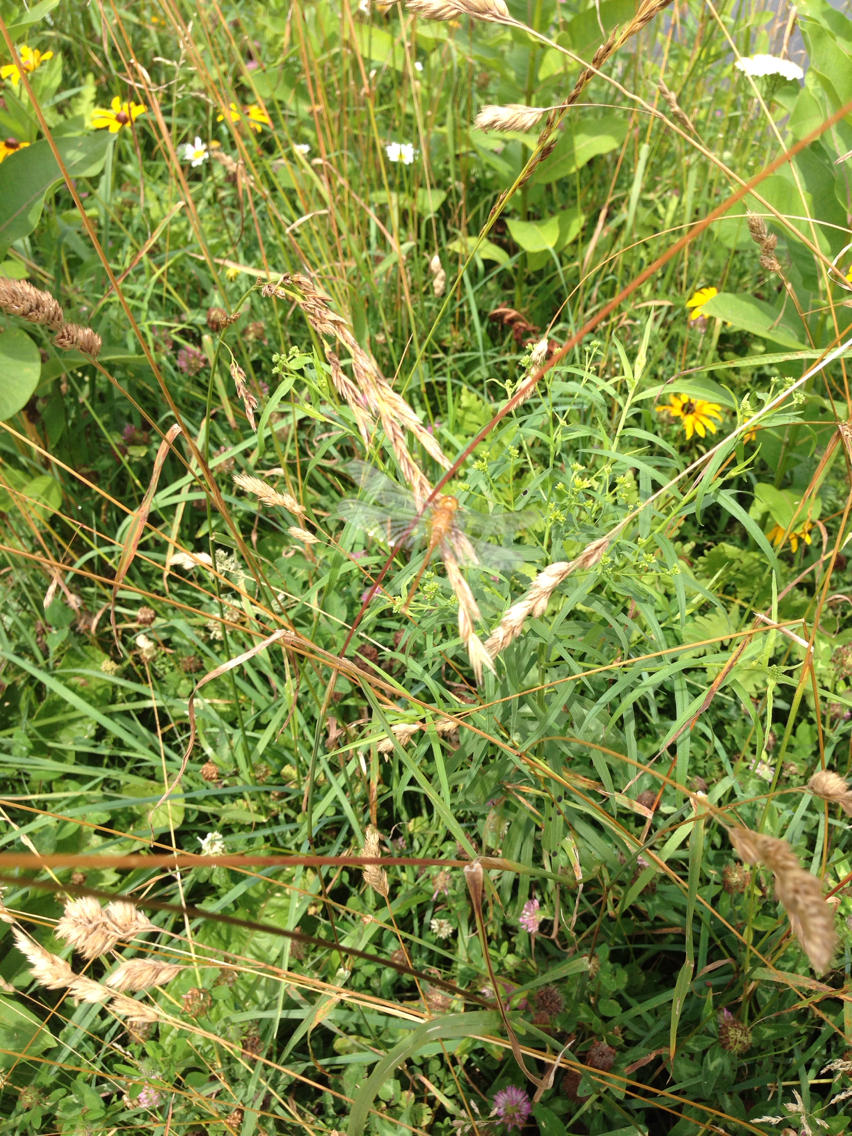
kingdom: Animalia
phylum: Arthropoda
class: Insecta
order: Odonata
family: Libellulidae
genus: Sympetrum
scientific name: Sympetrum vicinum
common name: Autumn meadowhawk
